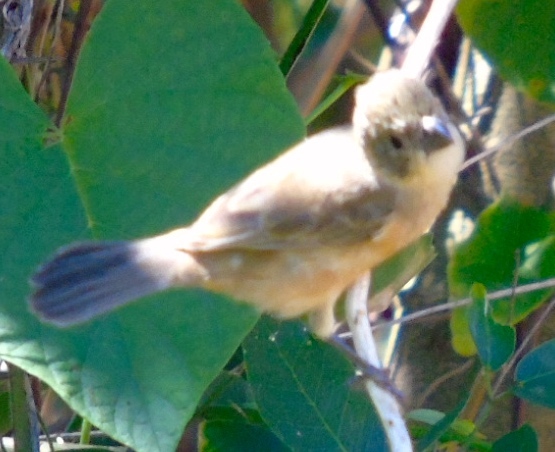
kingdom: Animalia
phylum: Chordata
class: Aves
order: Passeriformes
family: Thraupidae
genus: Sporophila
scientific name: Sporophila torqueola
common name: White-collared seedeater
